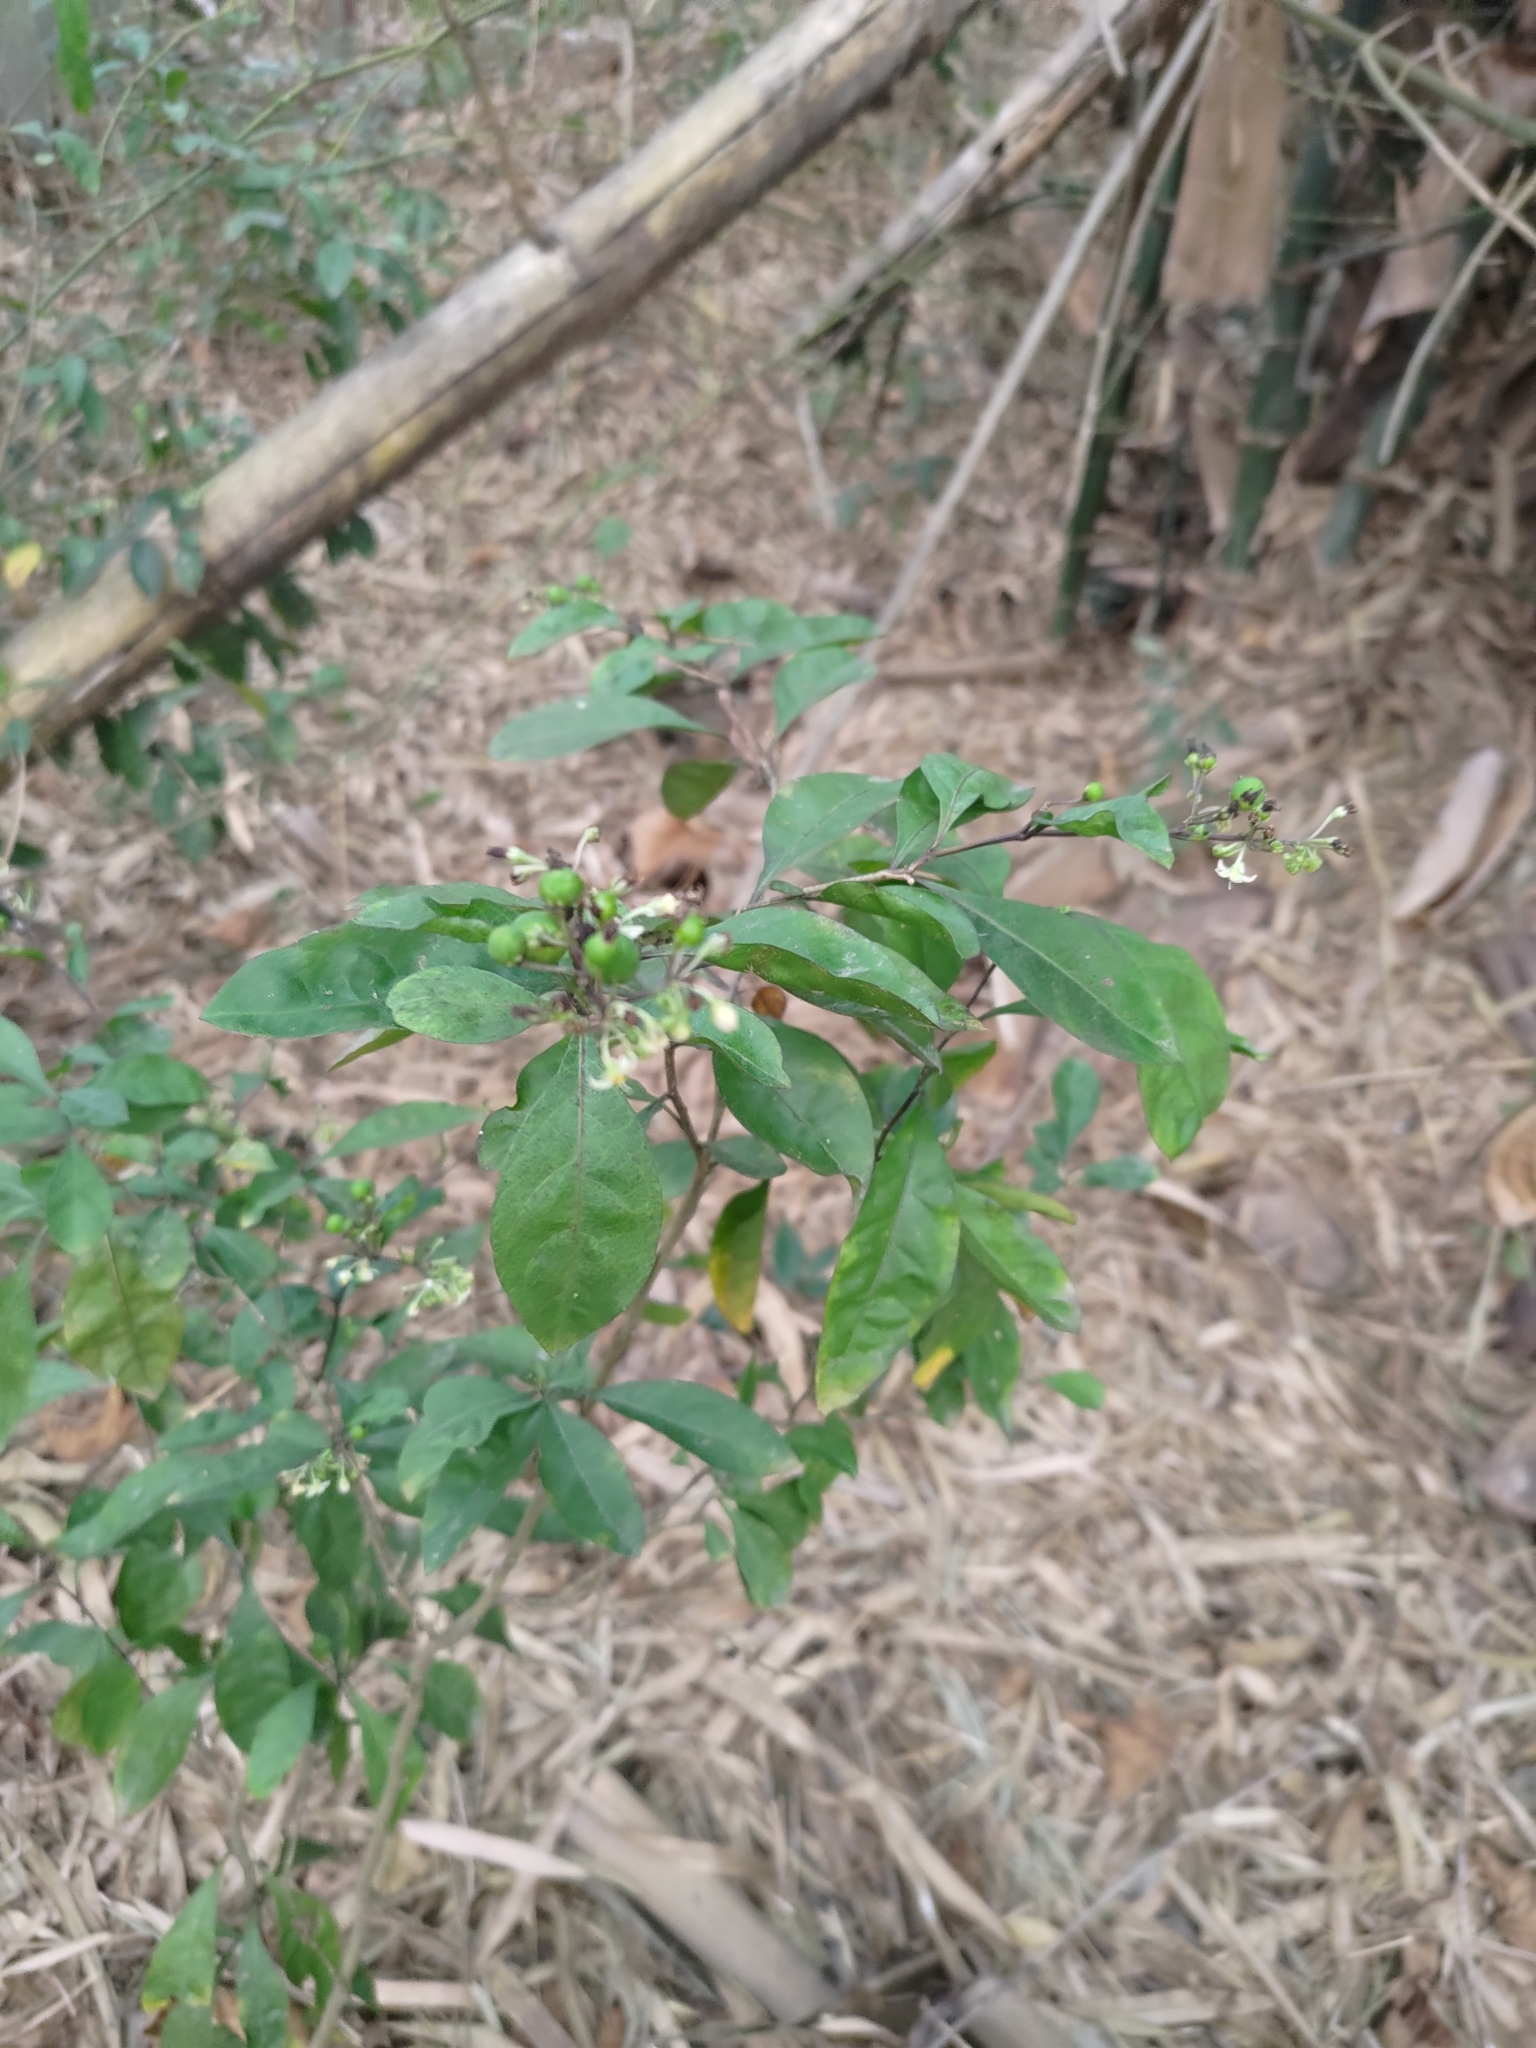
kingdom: Plantae
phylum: Tracheophyta
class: Magnoliopsida
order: Solanales
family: Solanaceae
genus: Solanum
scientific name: Solanum diphyllum
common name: Twoleaf nightshade
